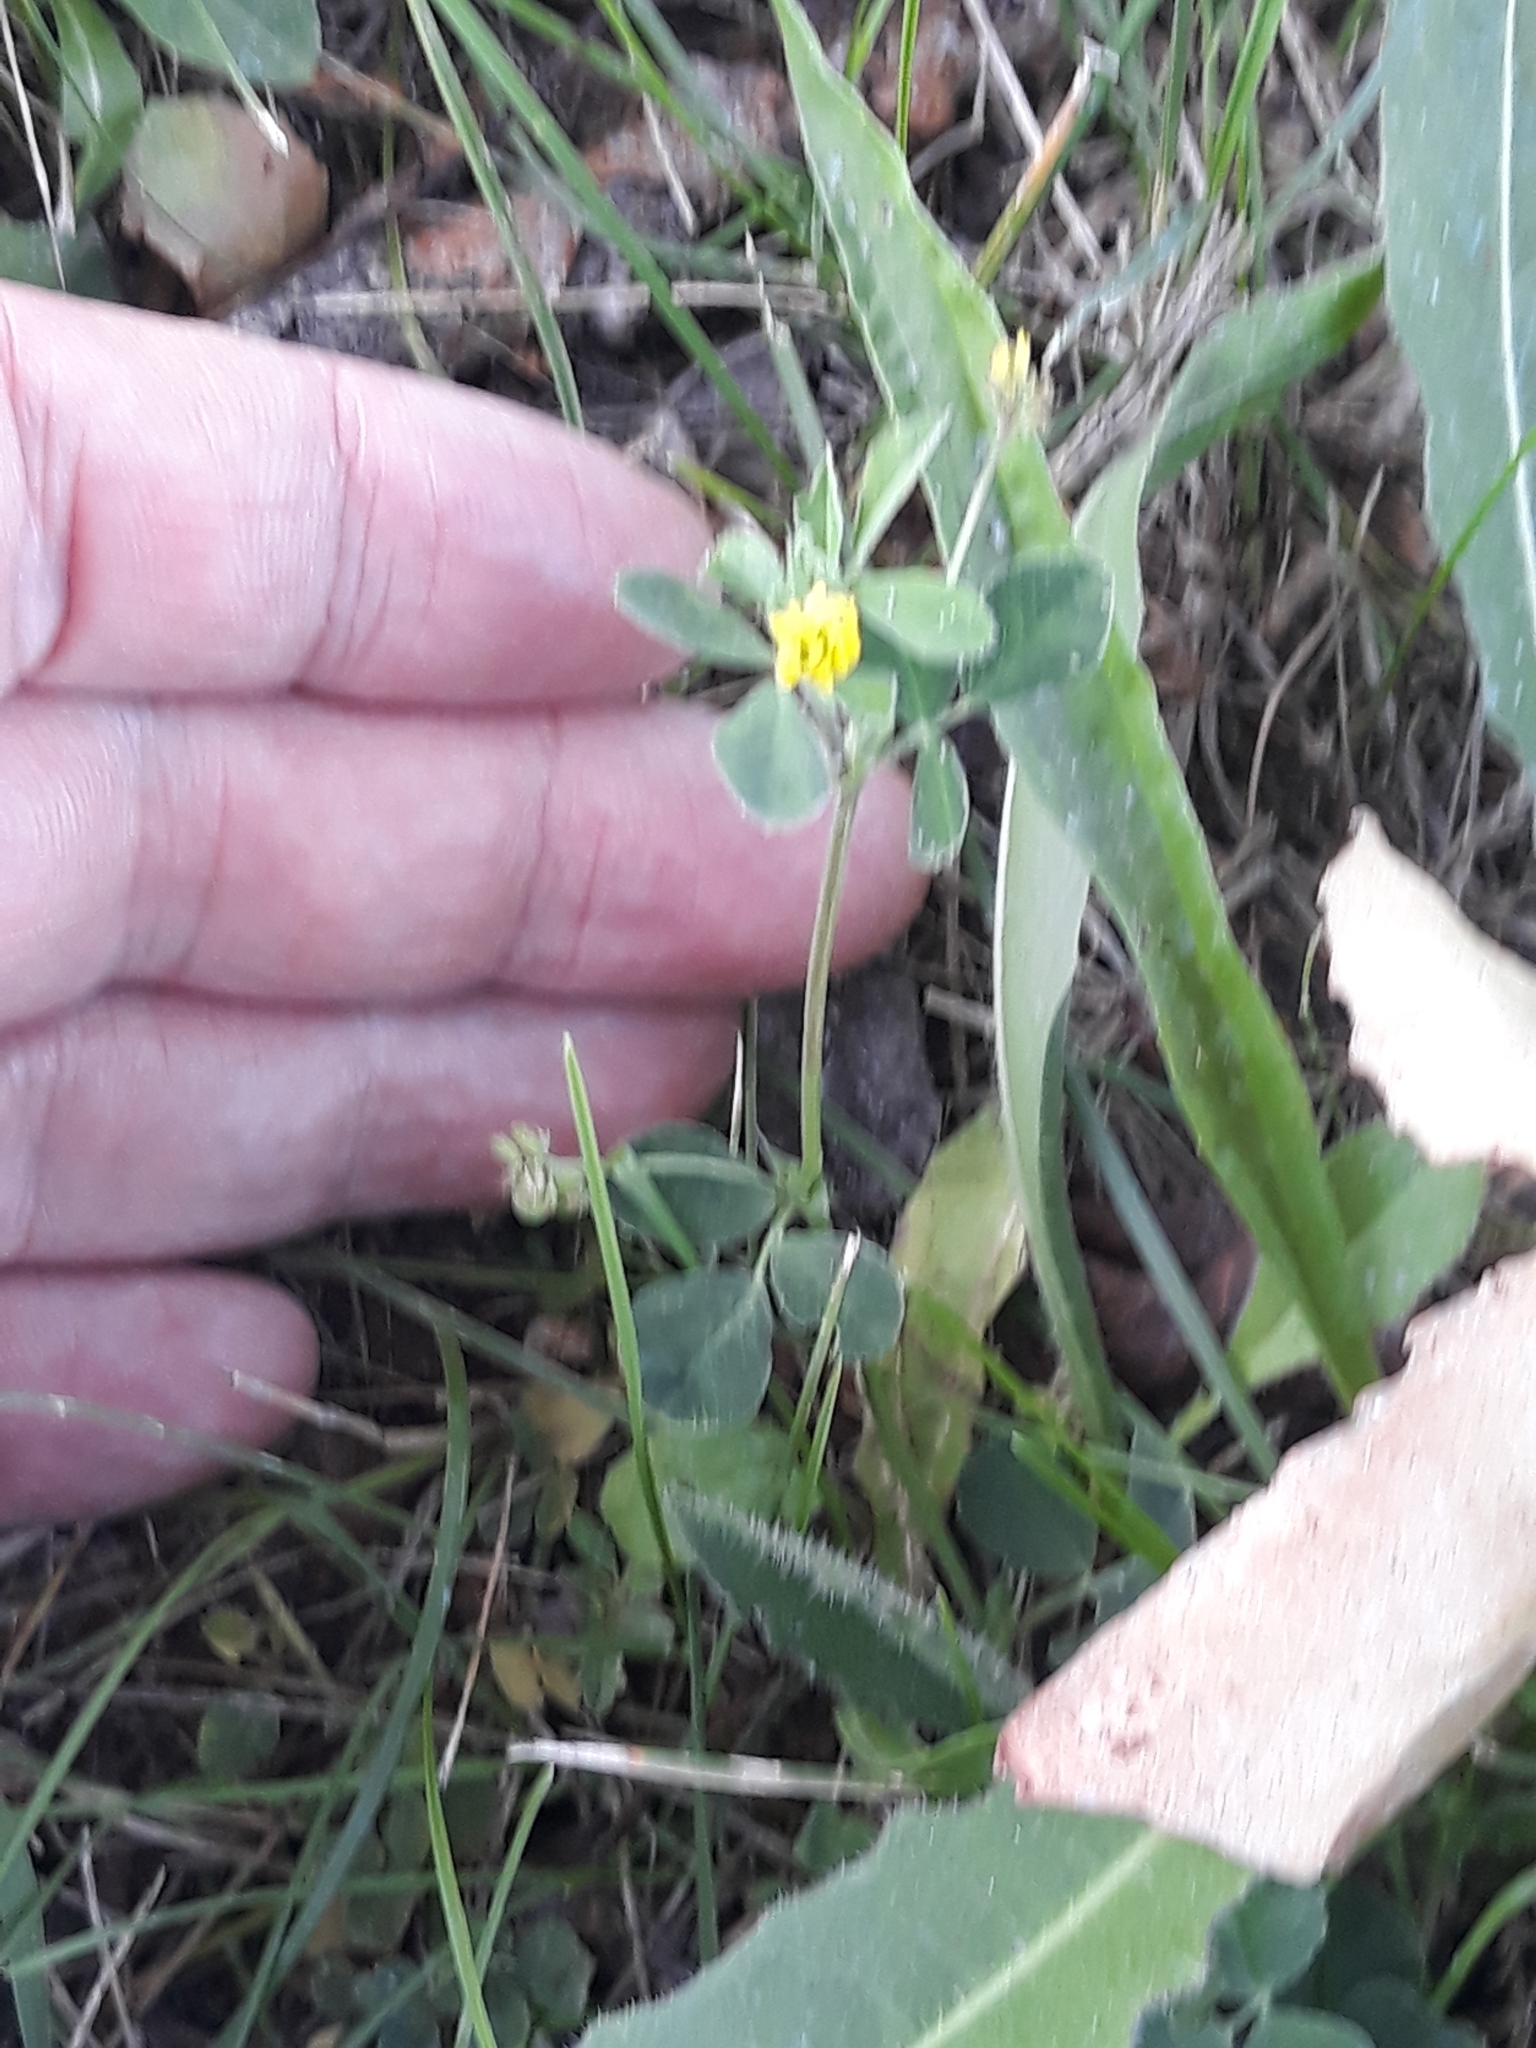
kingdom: Plantae
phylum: Tracheophyta
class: Magnoliopsida
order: Fabales
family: Fabaceae
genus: Medicago
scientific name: Medicago lupulina
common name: Black medick
